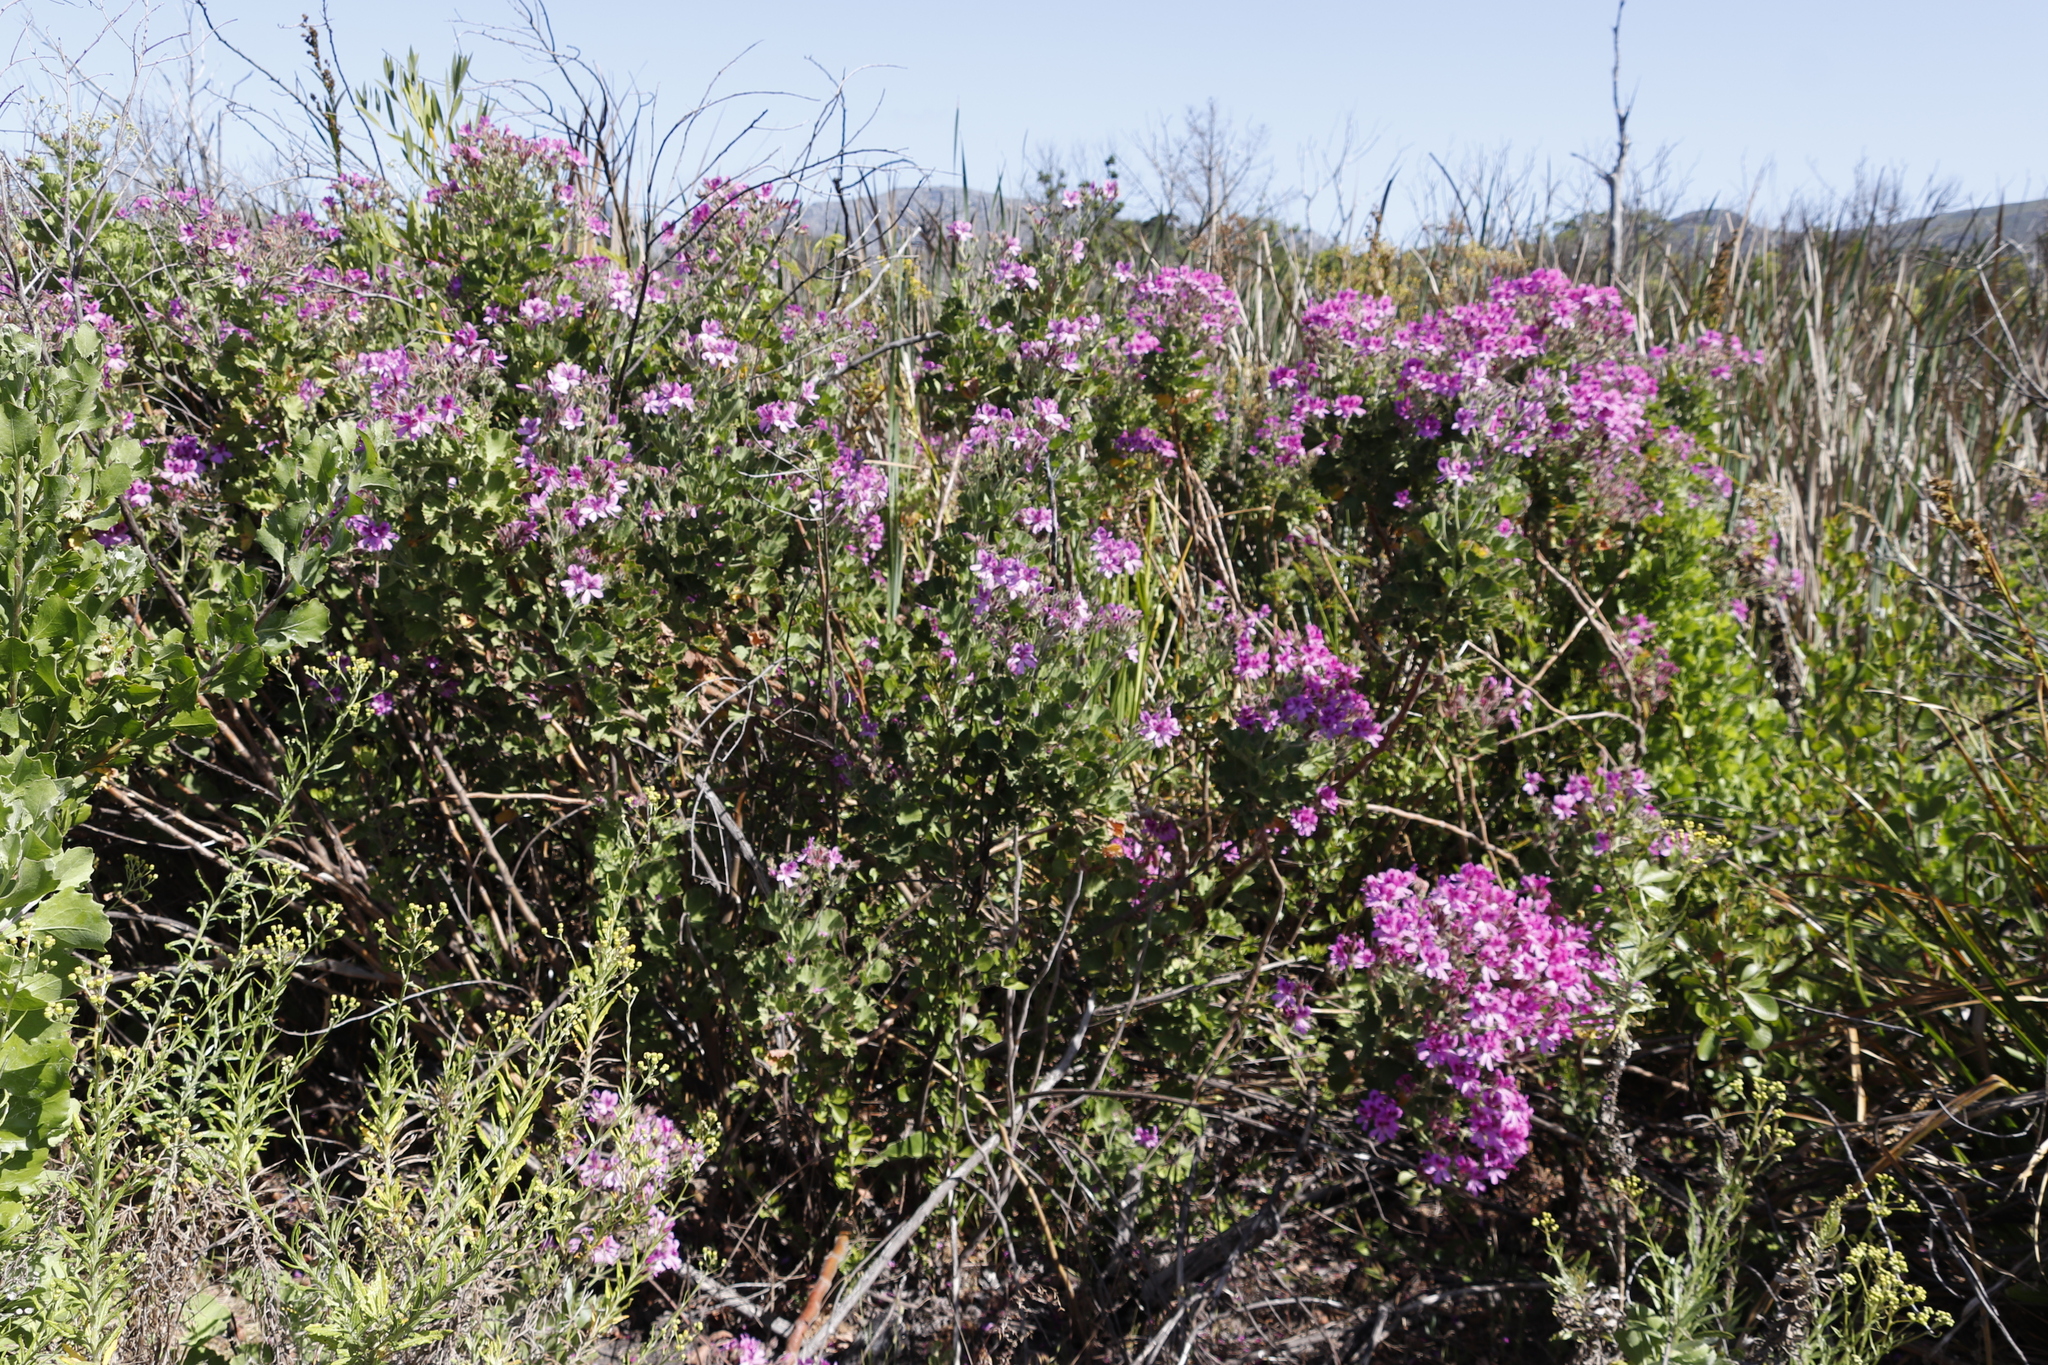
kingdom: Plantae
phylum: Tracheophyta
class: Magnoliopsida
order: Geraniales
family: Geraniaceae
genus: Pelargonium
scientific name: Pelargonium cucullatum
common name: Tree pelargonium
